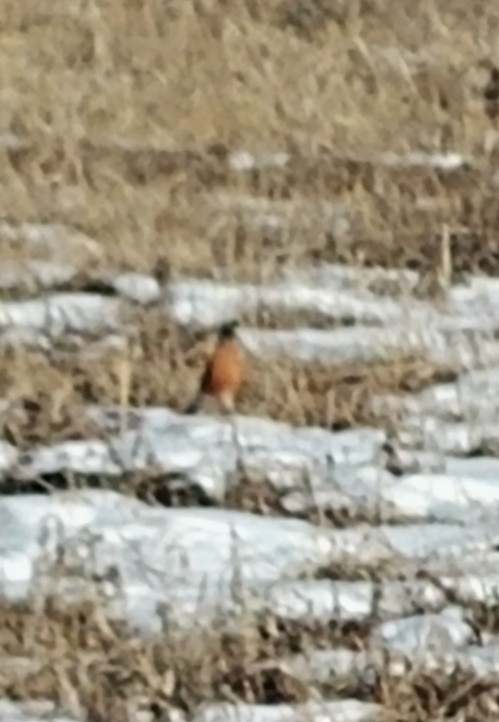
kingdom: Animalia
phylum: Chordata
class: Aves
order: Passeriformes
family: Turdidae
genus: Turdus
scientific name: Turdus migratorius
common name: American robin
